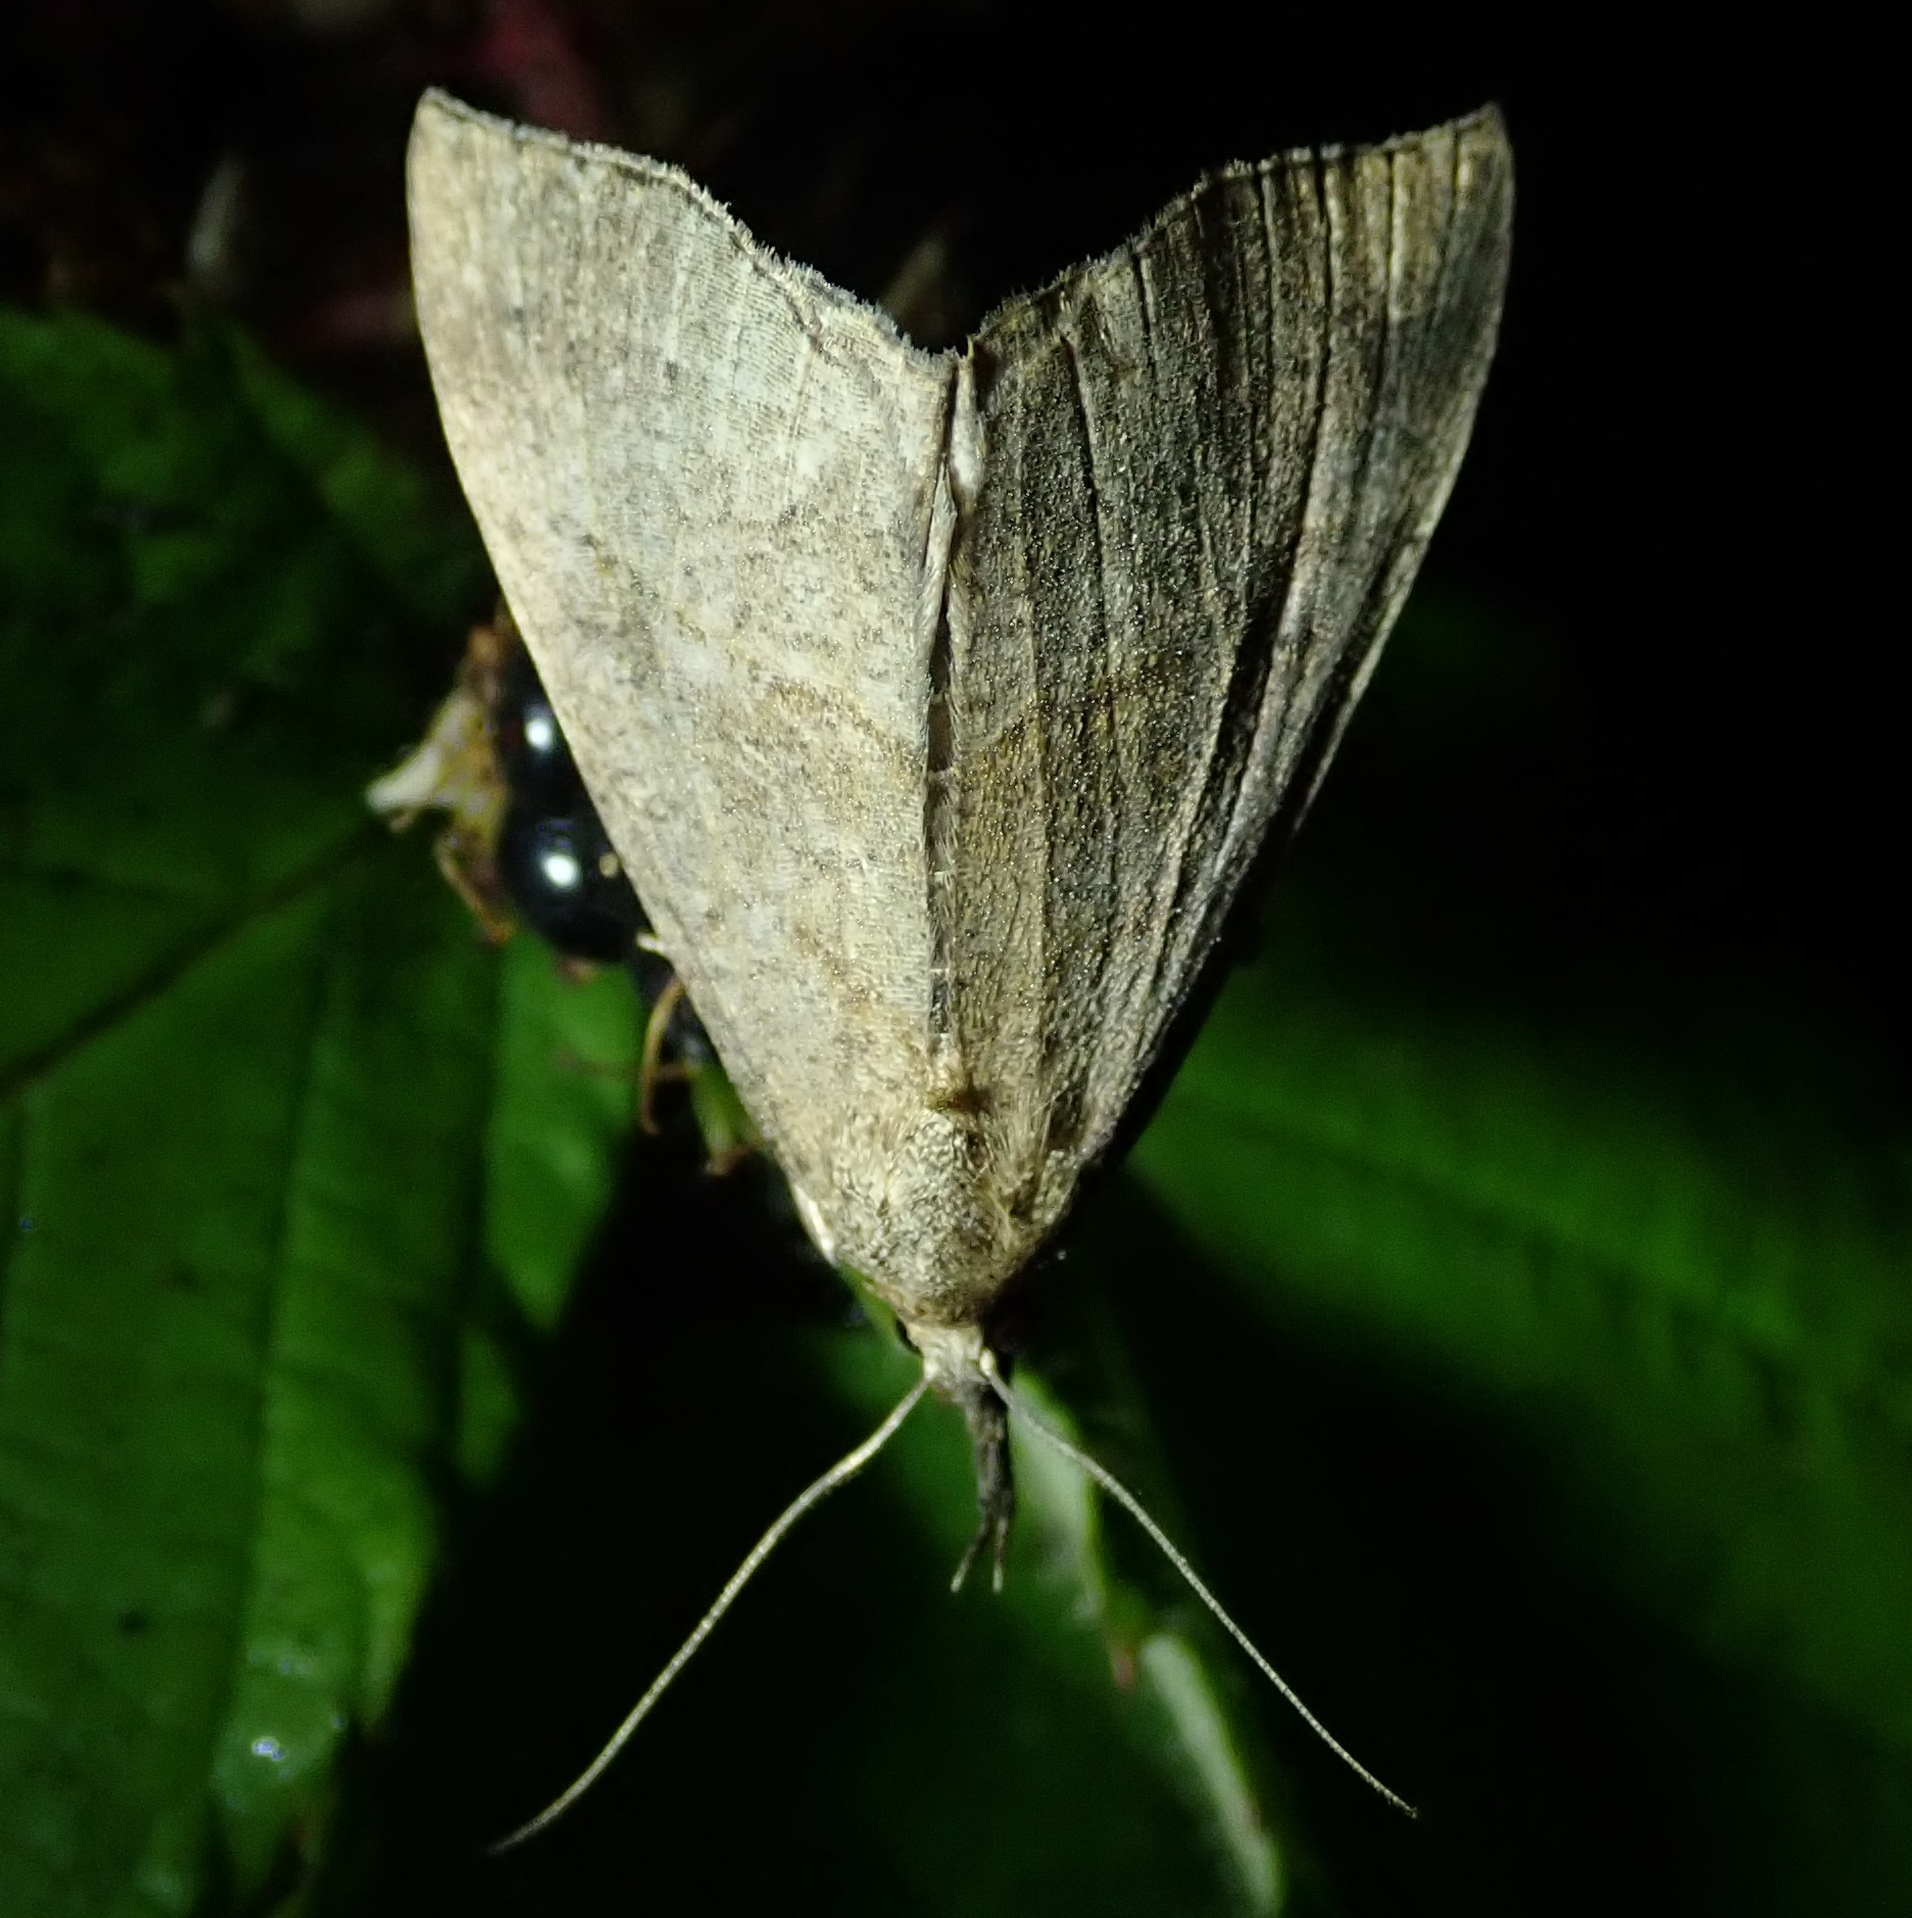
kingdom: Animalia
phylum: Arthropoda
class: Insecta
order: Lepidoptera
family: Erebidae
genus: Hypena
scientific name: Hypena proboscidalis
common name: Snout
